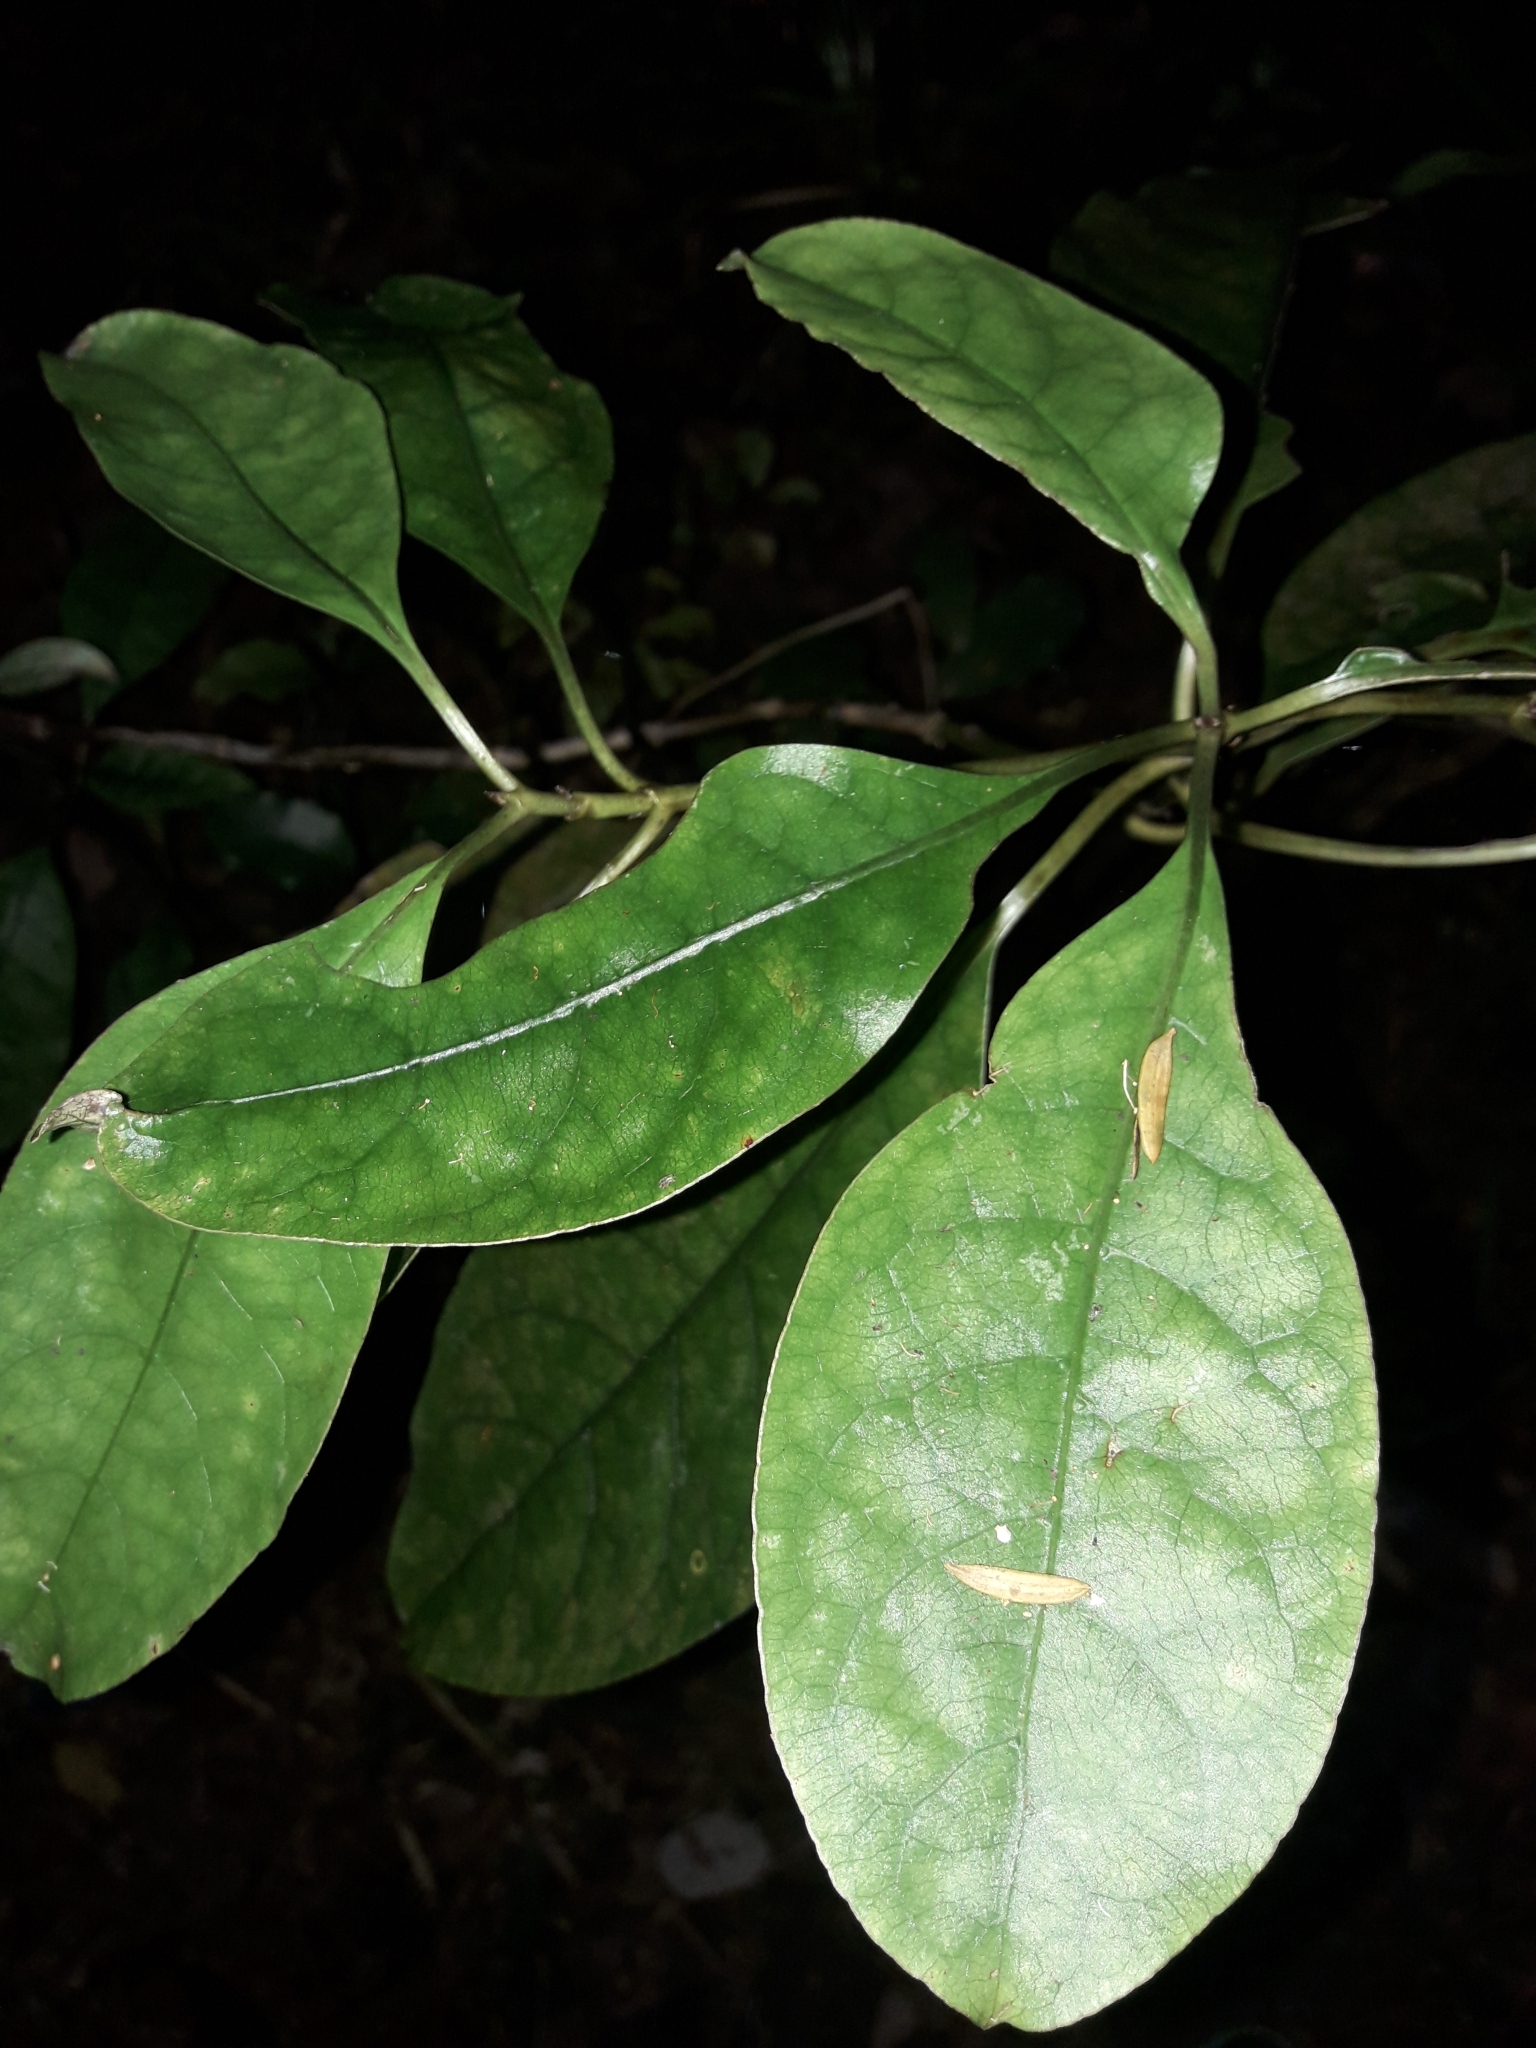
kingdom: Plantae
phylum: Tracheophyta
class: Magnoliopsida
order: Gentianales
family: Rubiaceae
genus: Coprosma
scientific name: Coprosma autumnalis
